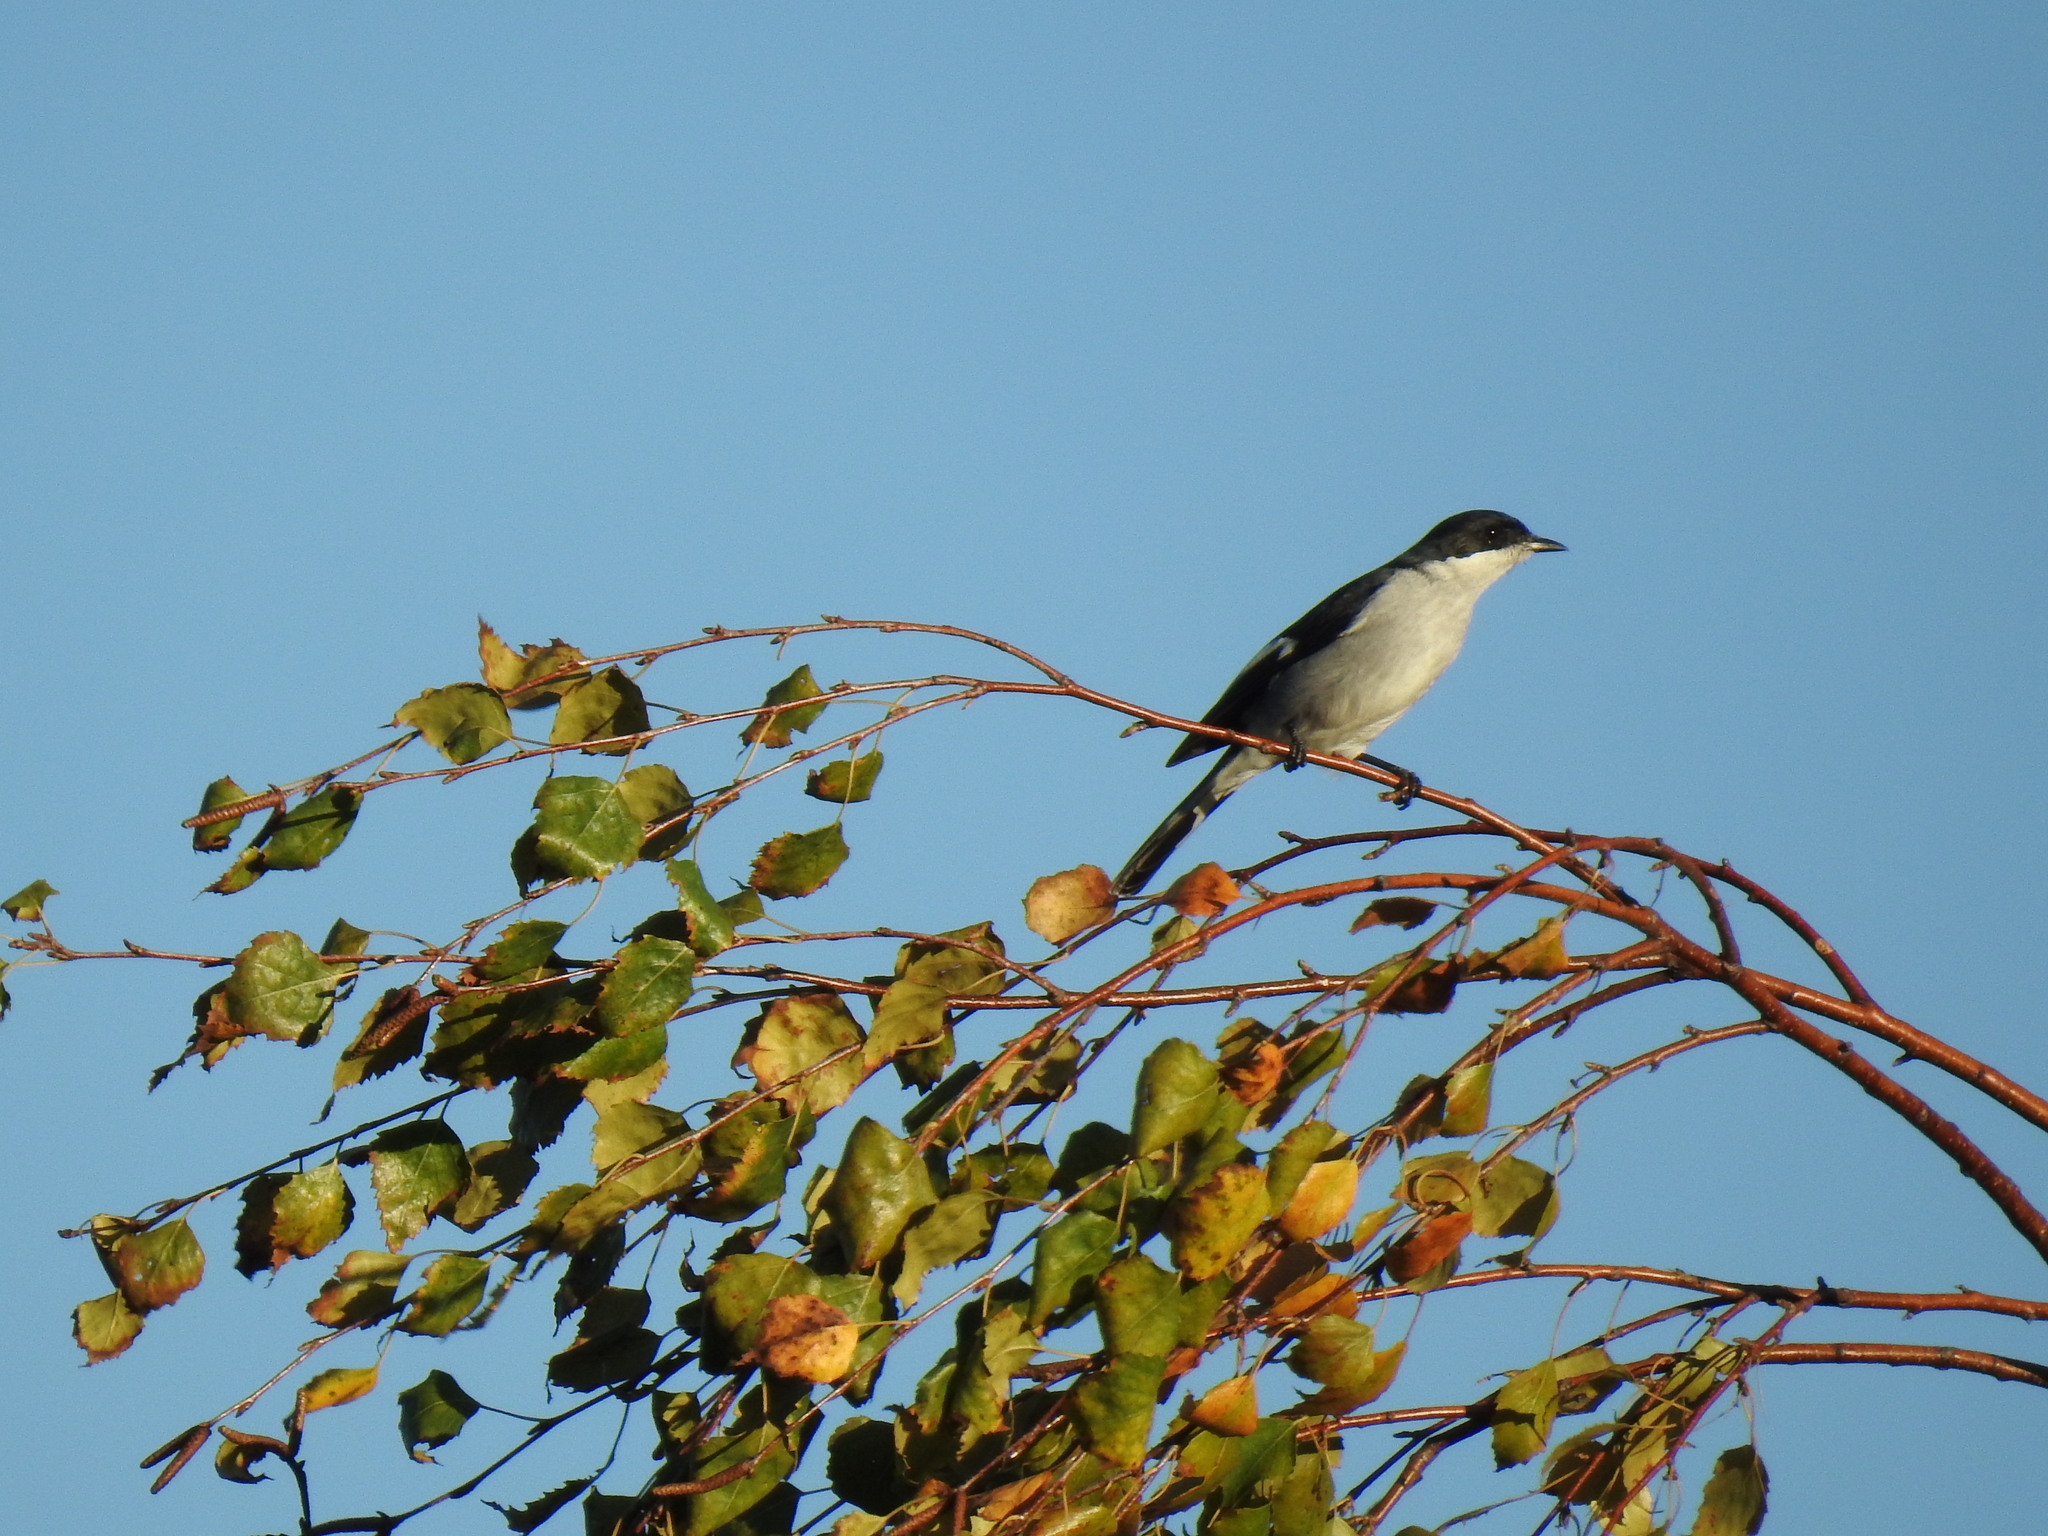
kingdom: Animalia
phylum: Chordata
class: Aves
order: Passeriformes
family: Muscicapidae
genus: Sigelus
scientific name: Sigelus silens
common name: Fiscal flycatcher
